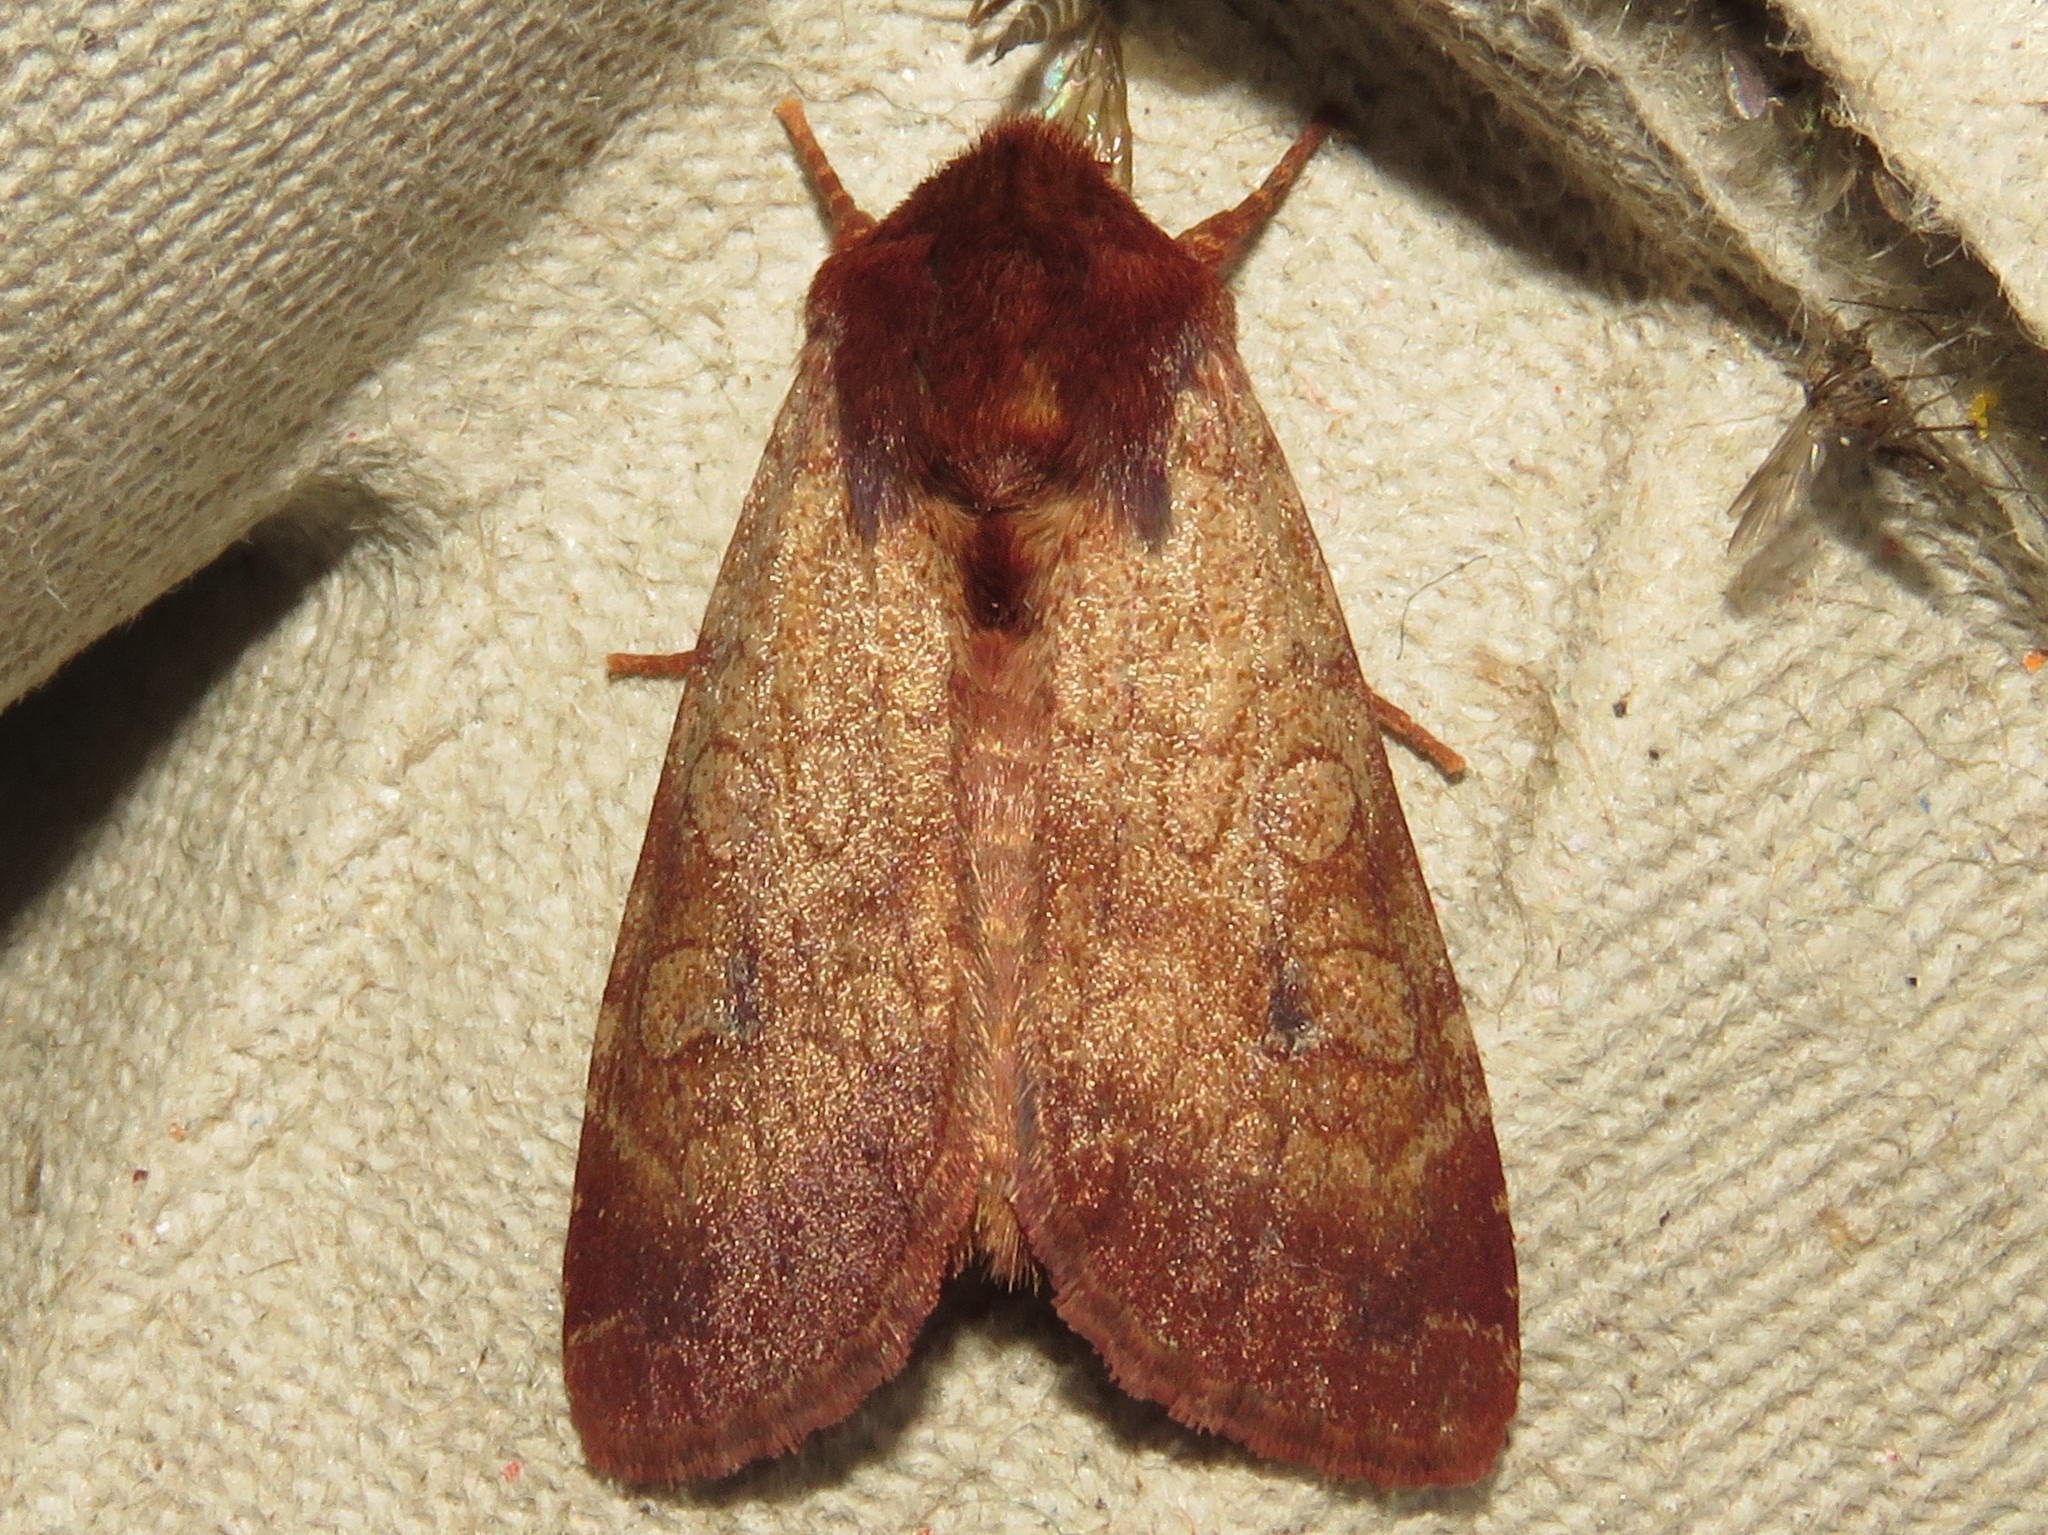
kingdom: Animalia
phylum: Arthropoda
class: Insecta
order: Lepidoptera
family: Noctuidae
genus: Sideridis
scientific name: Sideridis rosea
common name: Rosewing moth
